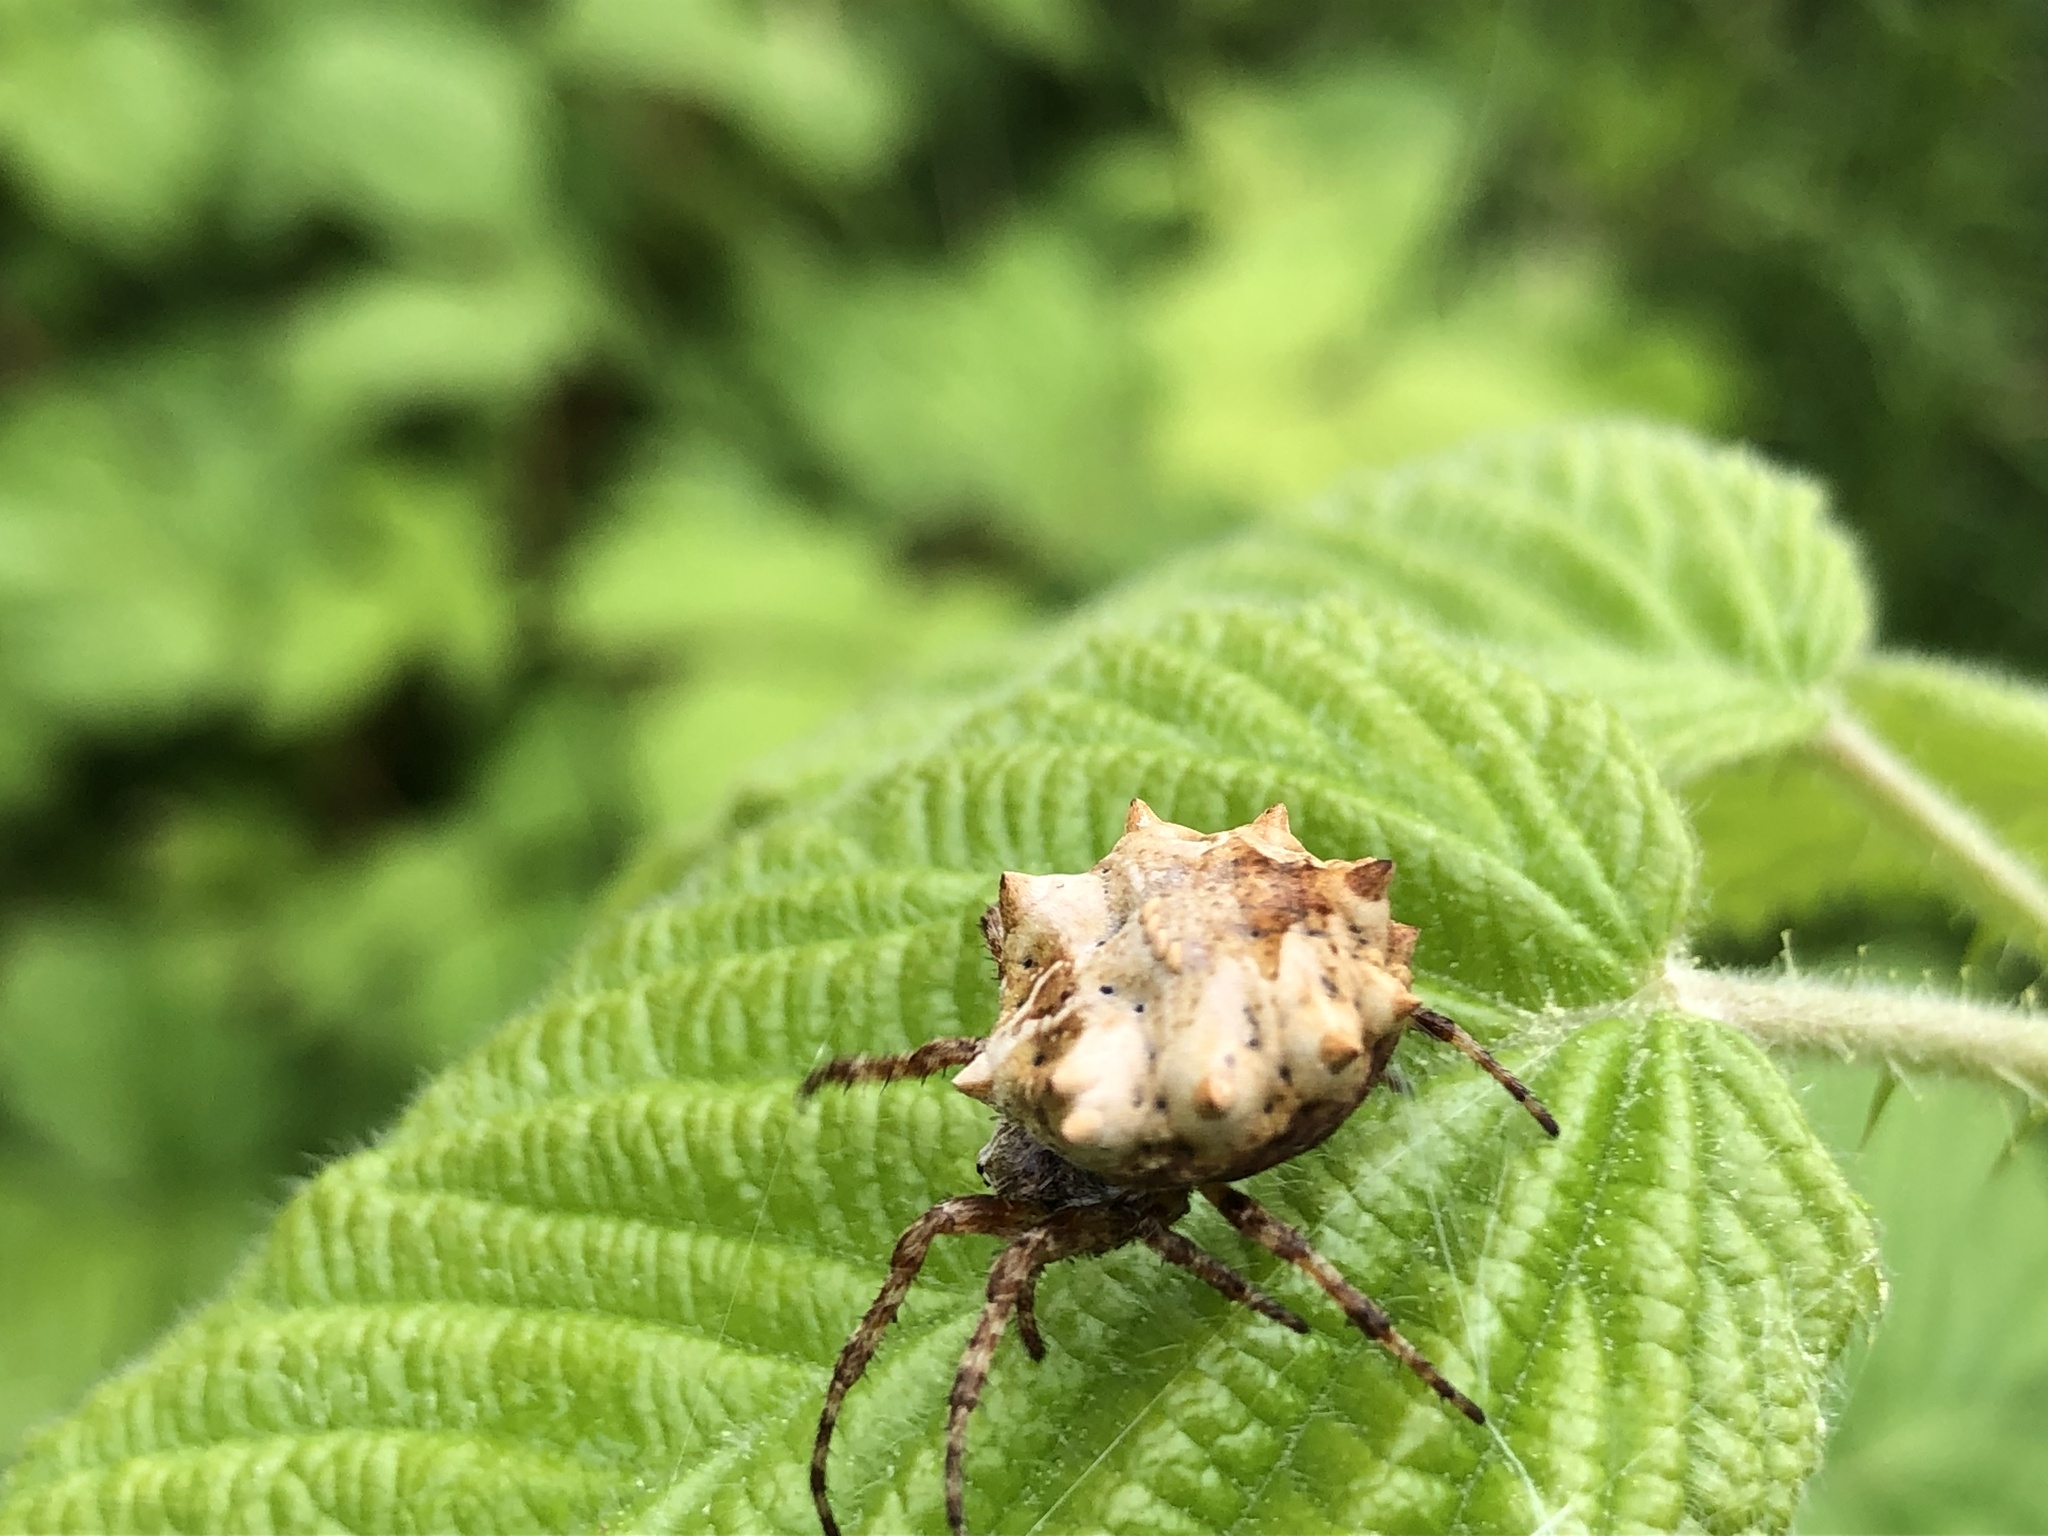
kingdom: Animalia
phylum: Arthropoda
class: Arachnida
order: Araneae
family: Araneidae
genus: Acanthepeira
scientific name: Acanthepeira stellata
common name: Starbellied orbweaver
